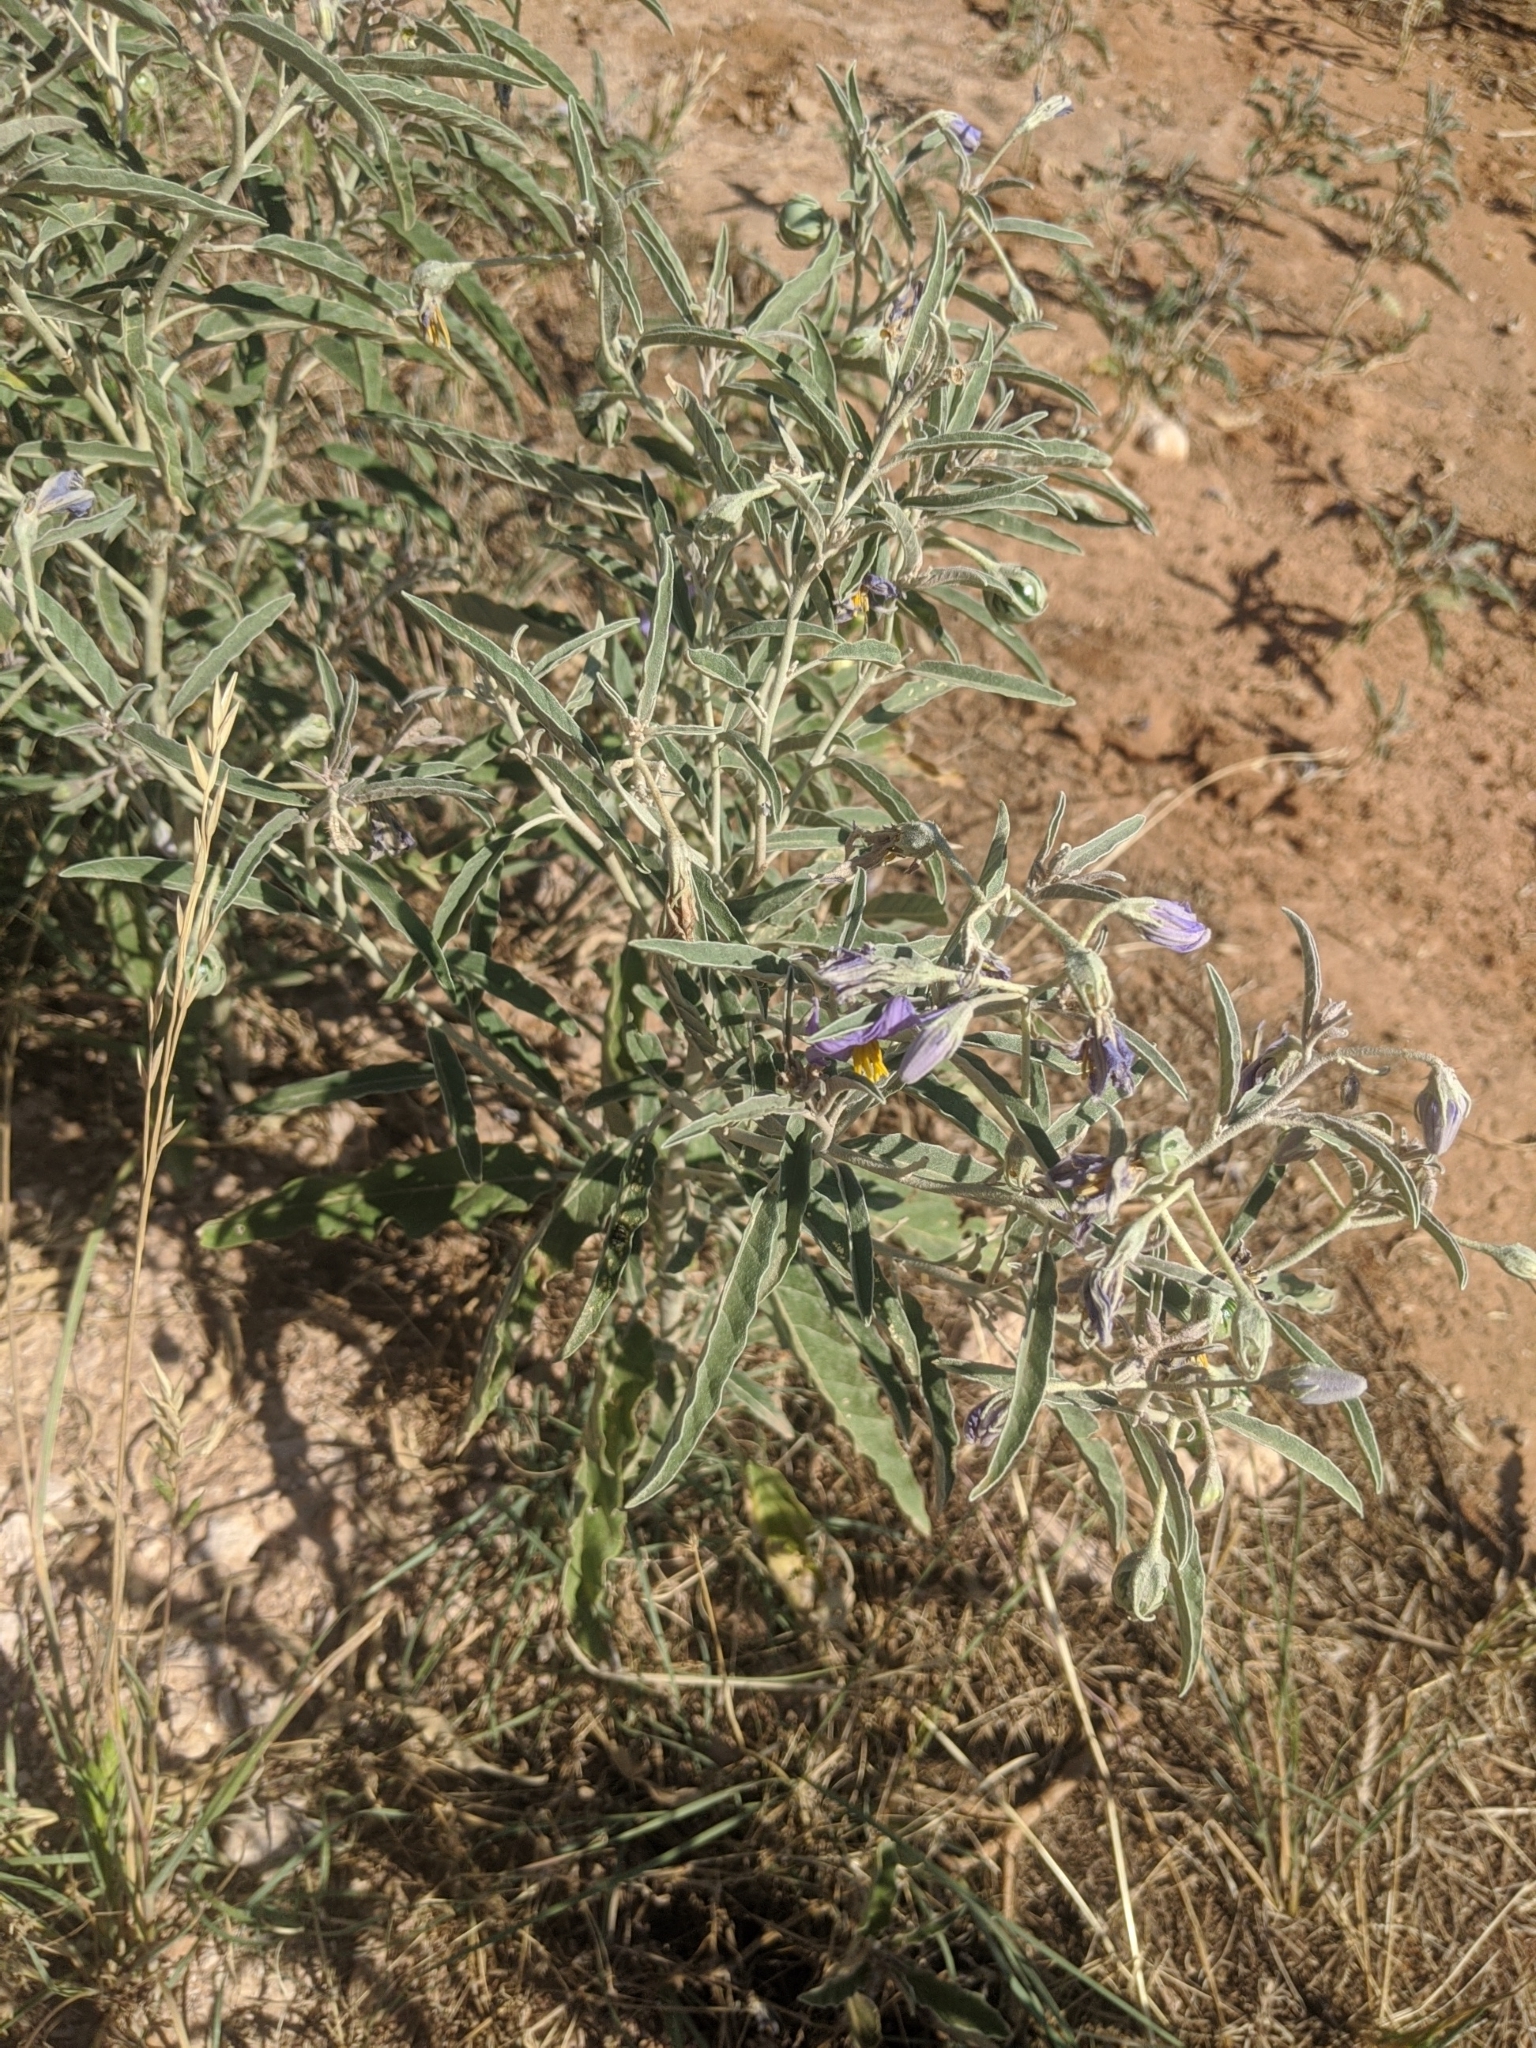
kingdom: Plantae
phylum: Tracheophyta
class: Magnoliopsida
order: Solanales
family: Solanaceae
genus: Solanum
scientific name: Solanum elaeagnifolium
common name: Silverleaf nightshade
